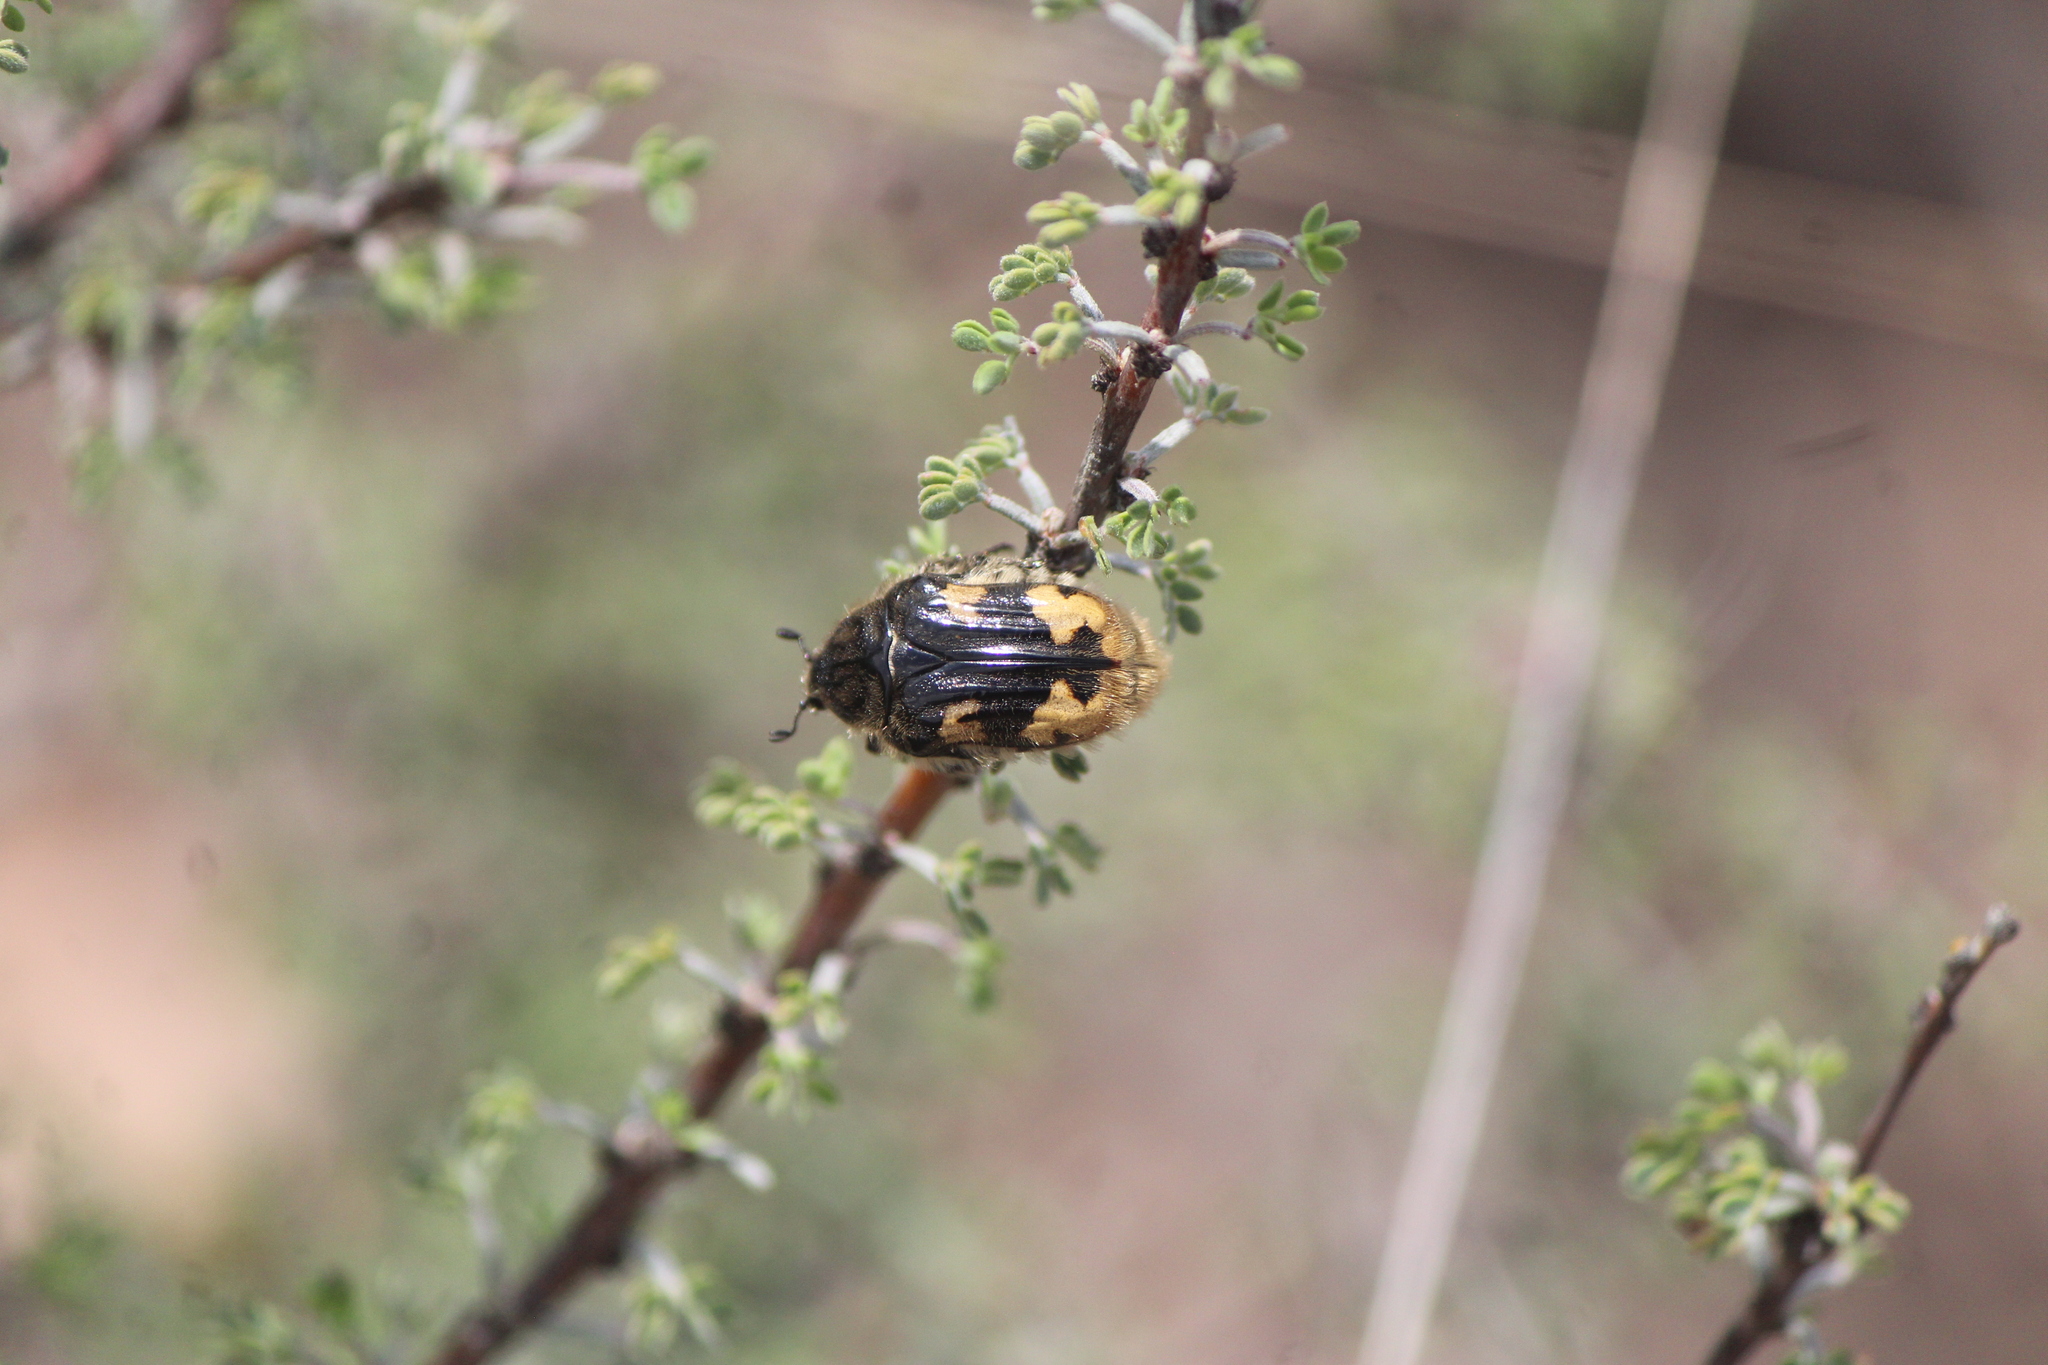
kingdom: Animalia
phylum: Arthropoda
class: Insecta
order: Coleoptera
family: Scarabaeidae
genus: Euphoria
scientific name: Euphoria basalis
